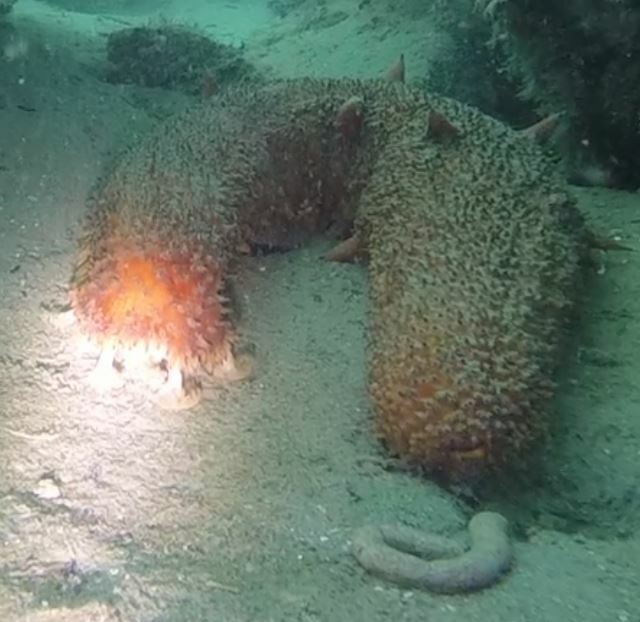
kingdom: Animalia
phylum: Echinodermata
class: Holothuroidea
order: Synallactida
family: Stichopodidae
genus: Apostichopus
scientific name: Apostichopus parvimensis
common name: Warty sea cucumber
